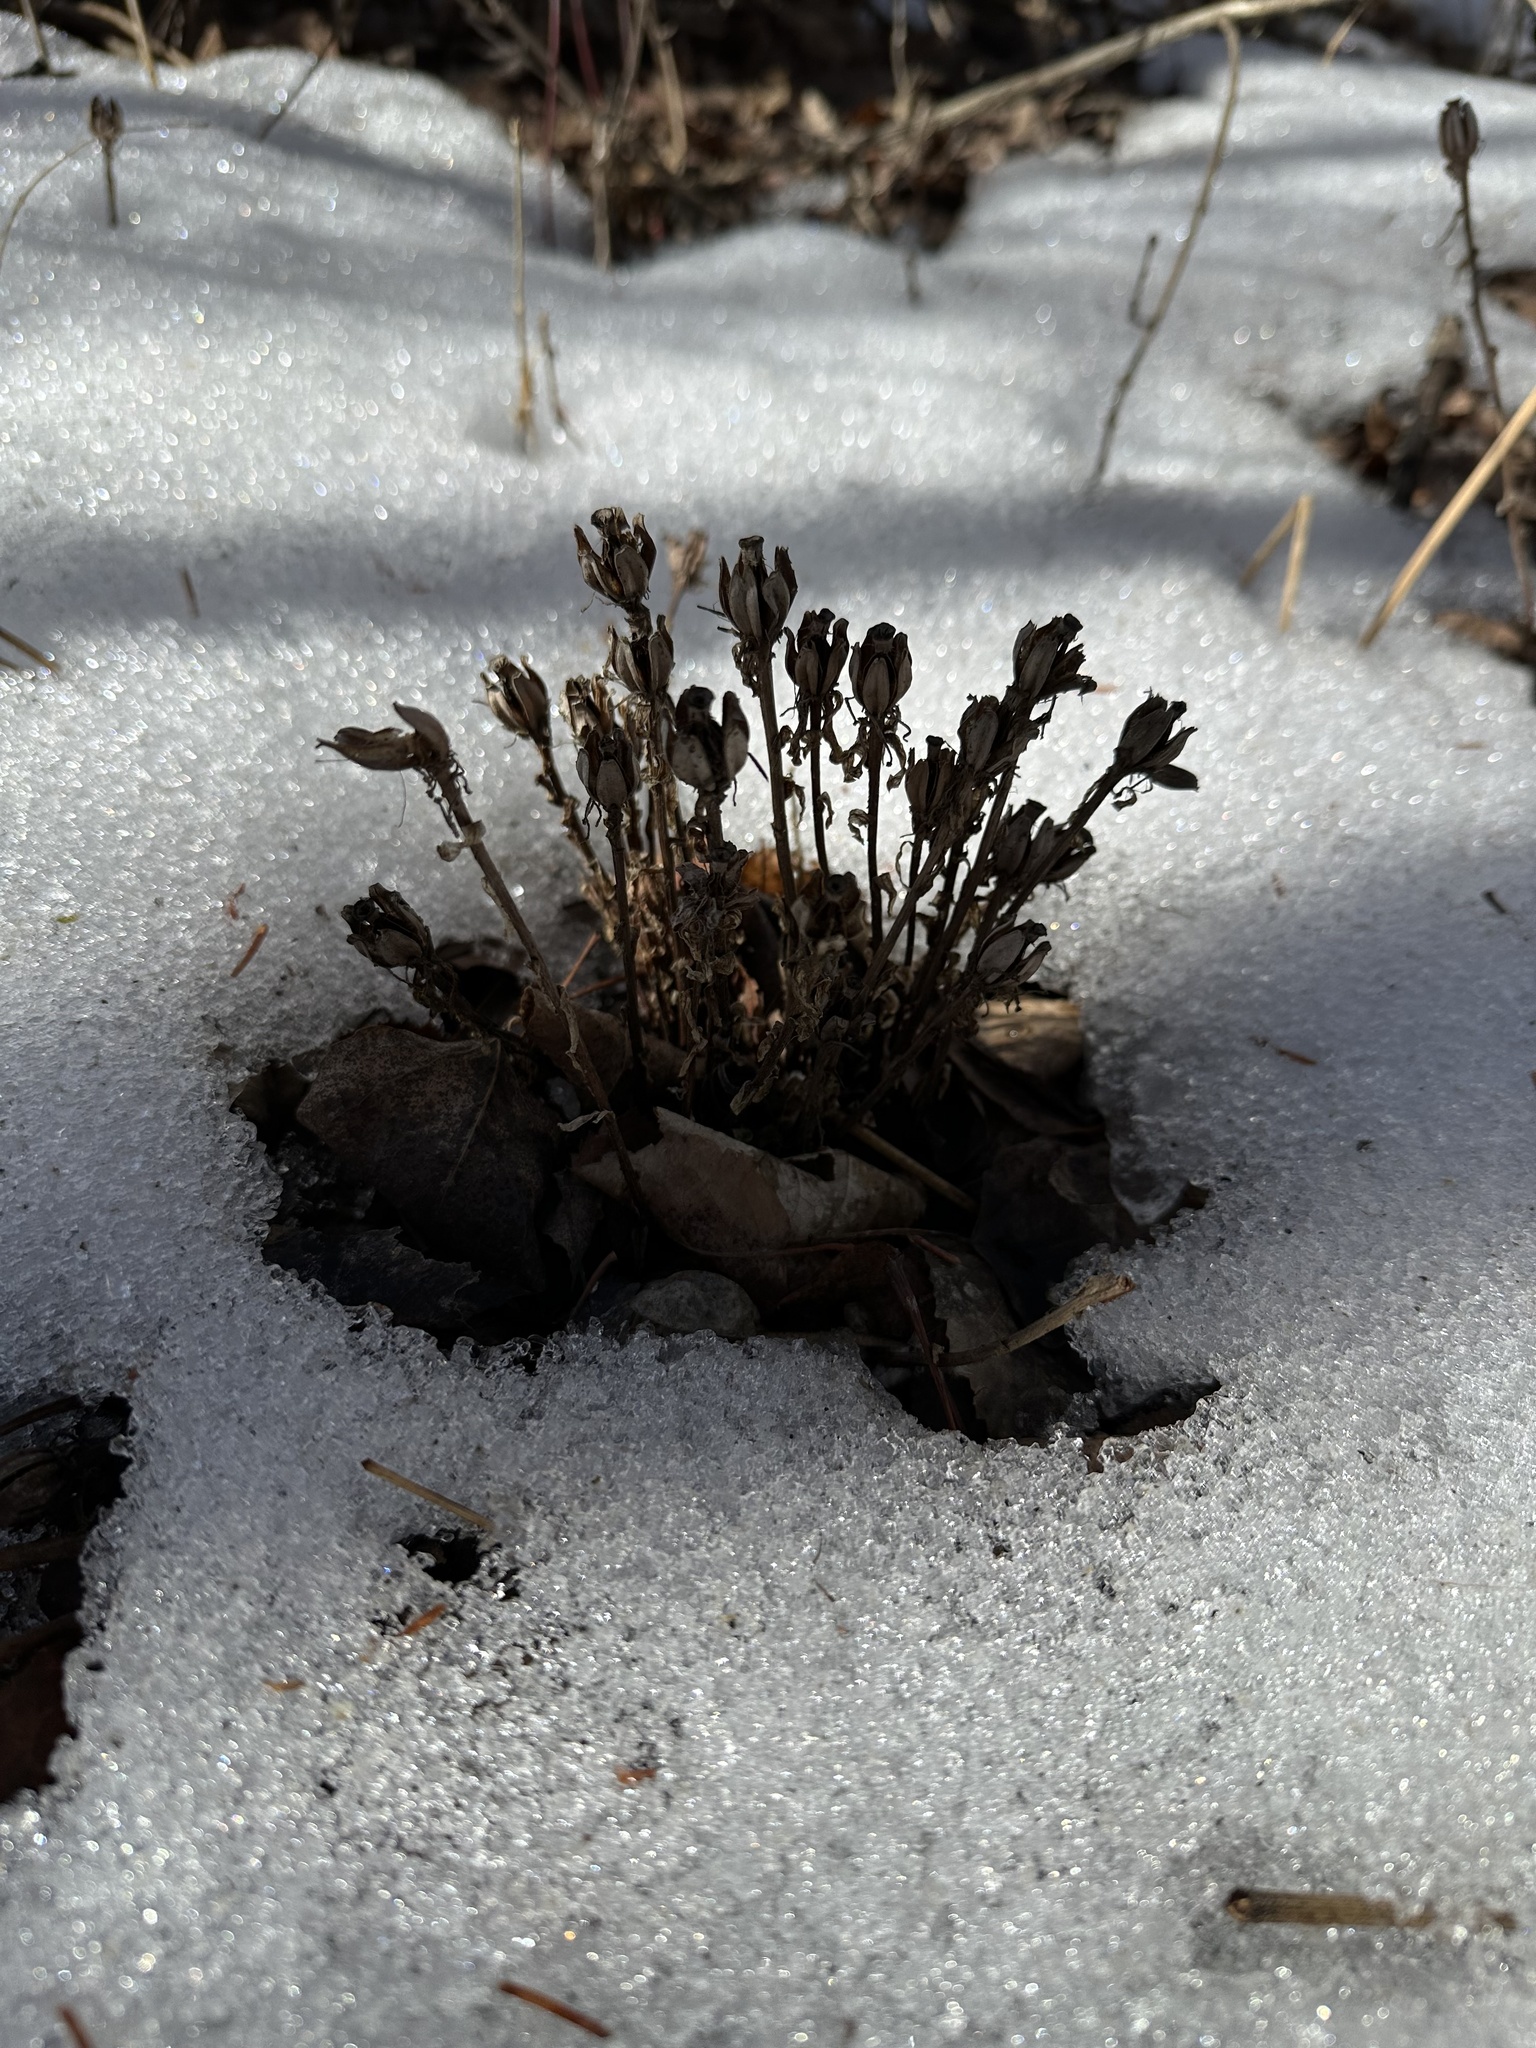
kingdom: Plantae
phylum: Tracheophyta
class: Magnoliopsida
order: Ericales
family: Ericaceae
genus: Monotropa
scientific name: Monotropa uniflora
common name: Convulsion root
